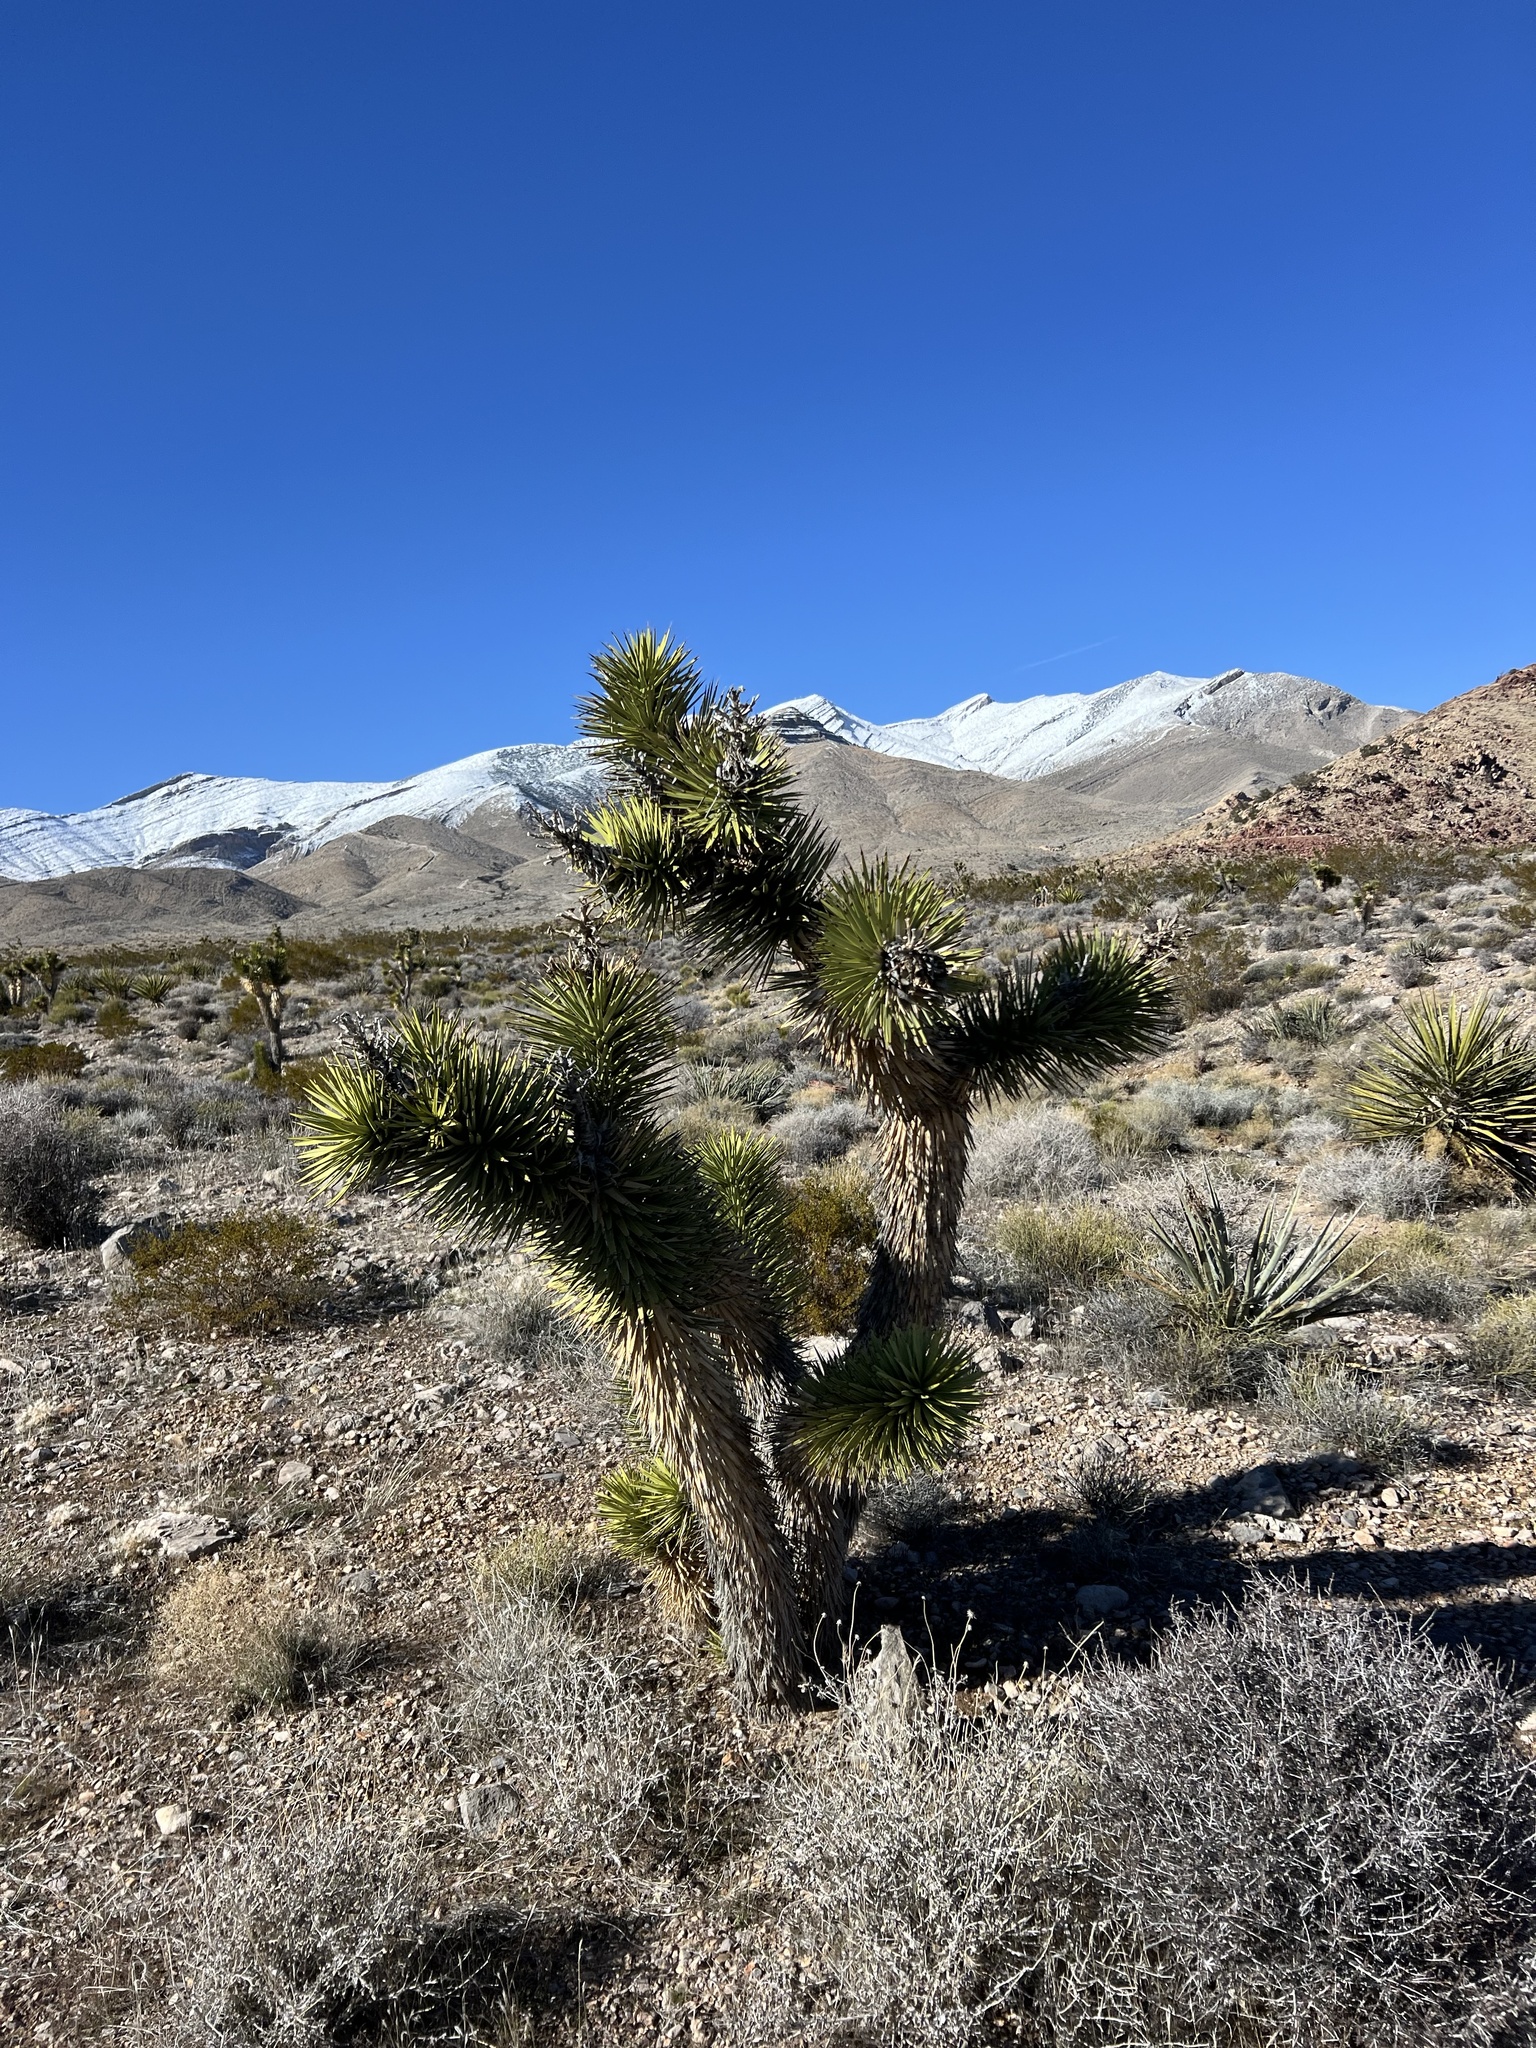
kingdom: Plantae
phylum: Tracheophyta
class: Liliopsida
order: Asparagales
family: Asparagaceae
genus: Yucca
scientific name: Yucca brevifolia
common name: Joshua tree
